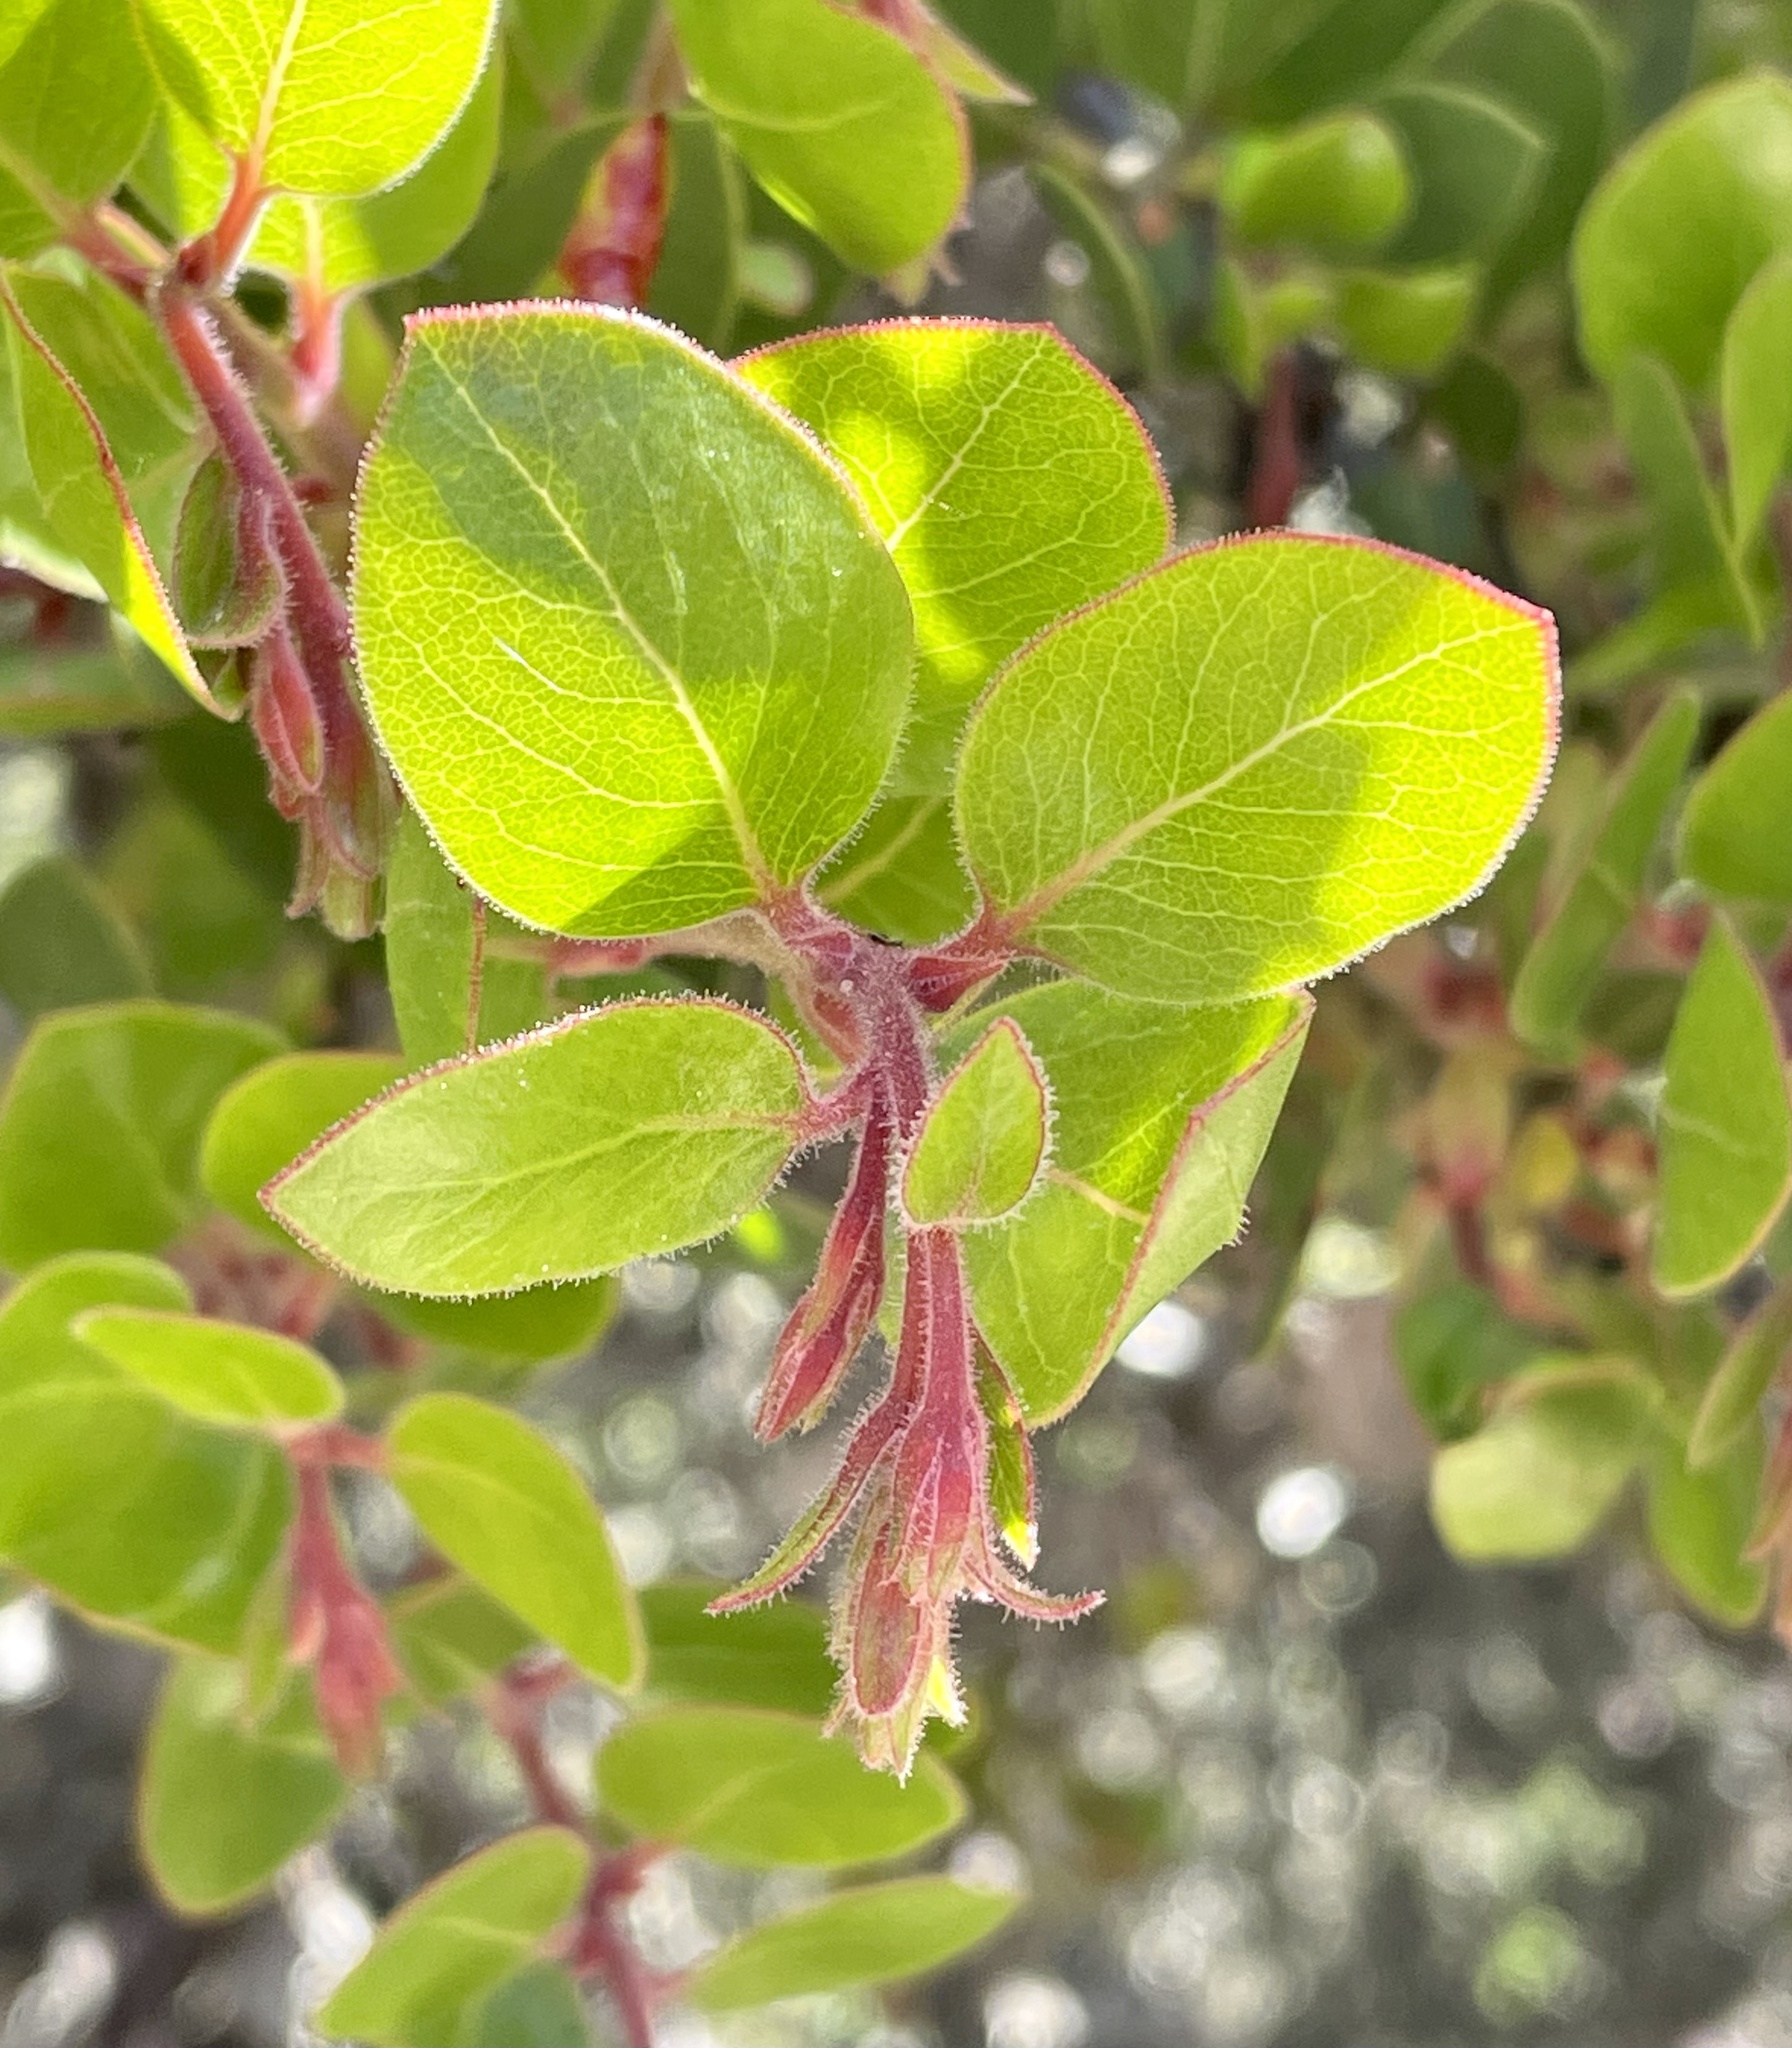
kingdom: Plantae
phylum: Tracheophyta
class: Magnoliopsida
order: Ericales
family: Ericaceae
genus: Arctostaphylos
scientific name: Arctostaphylos montereyensis
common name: Monterey manzanita
